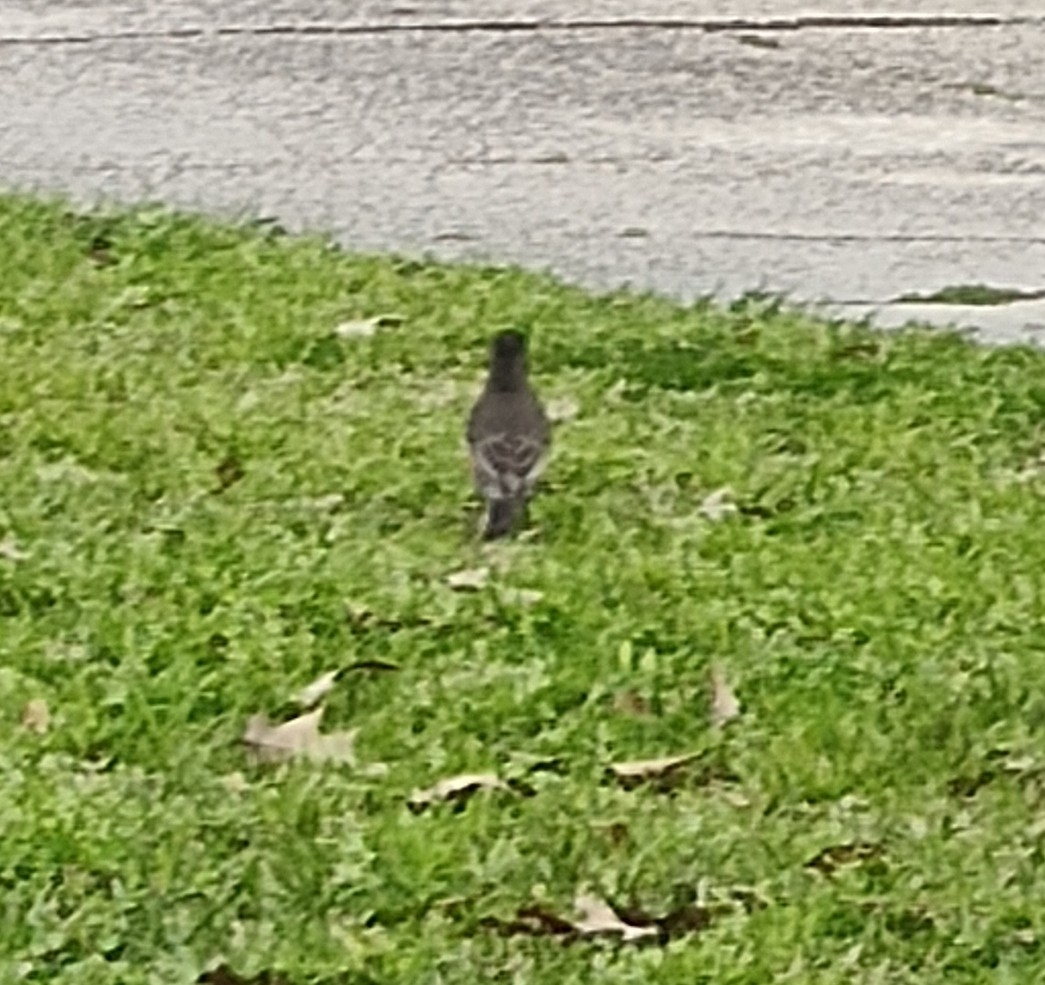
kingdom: Animalia
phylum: Chordata
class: Aves
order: Passeriformes
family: Turdidae
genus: Turdus
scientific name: Turdus migratorius
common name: American robin
